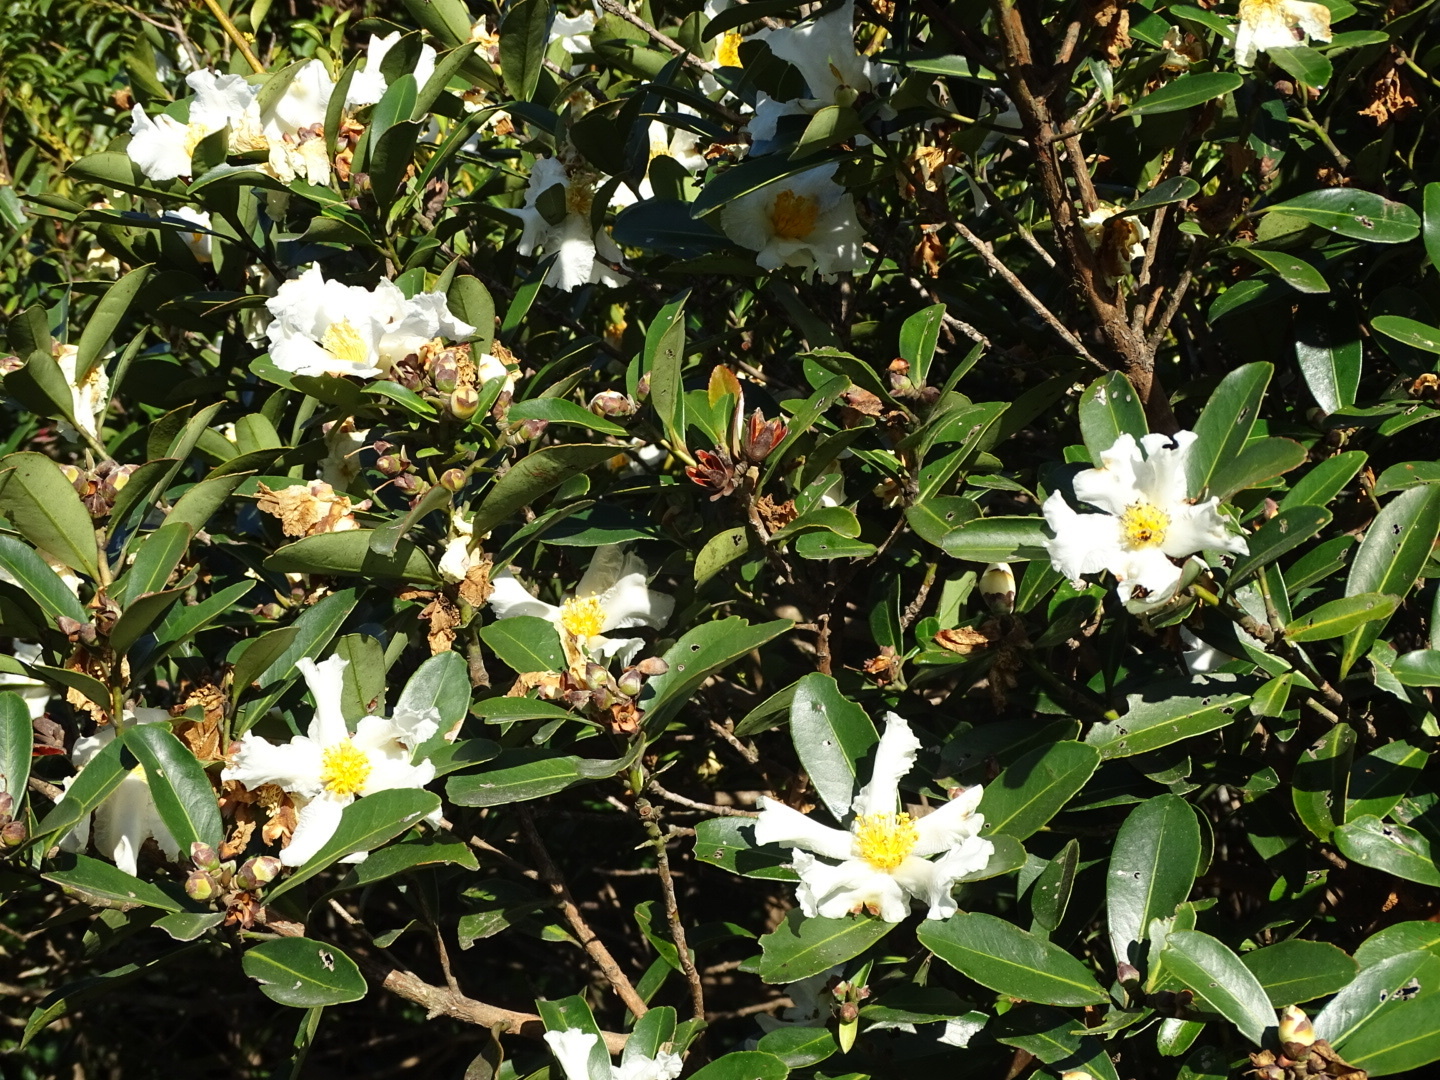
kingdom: Plantae
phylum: Tracheophyta
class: Magnoliopsida
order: Ericales
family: Theaceae
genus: Polyspora
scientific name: Polyspora axillaris
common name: Fried egg tree
